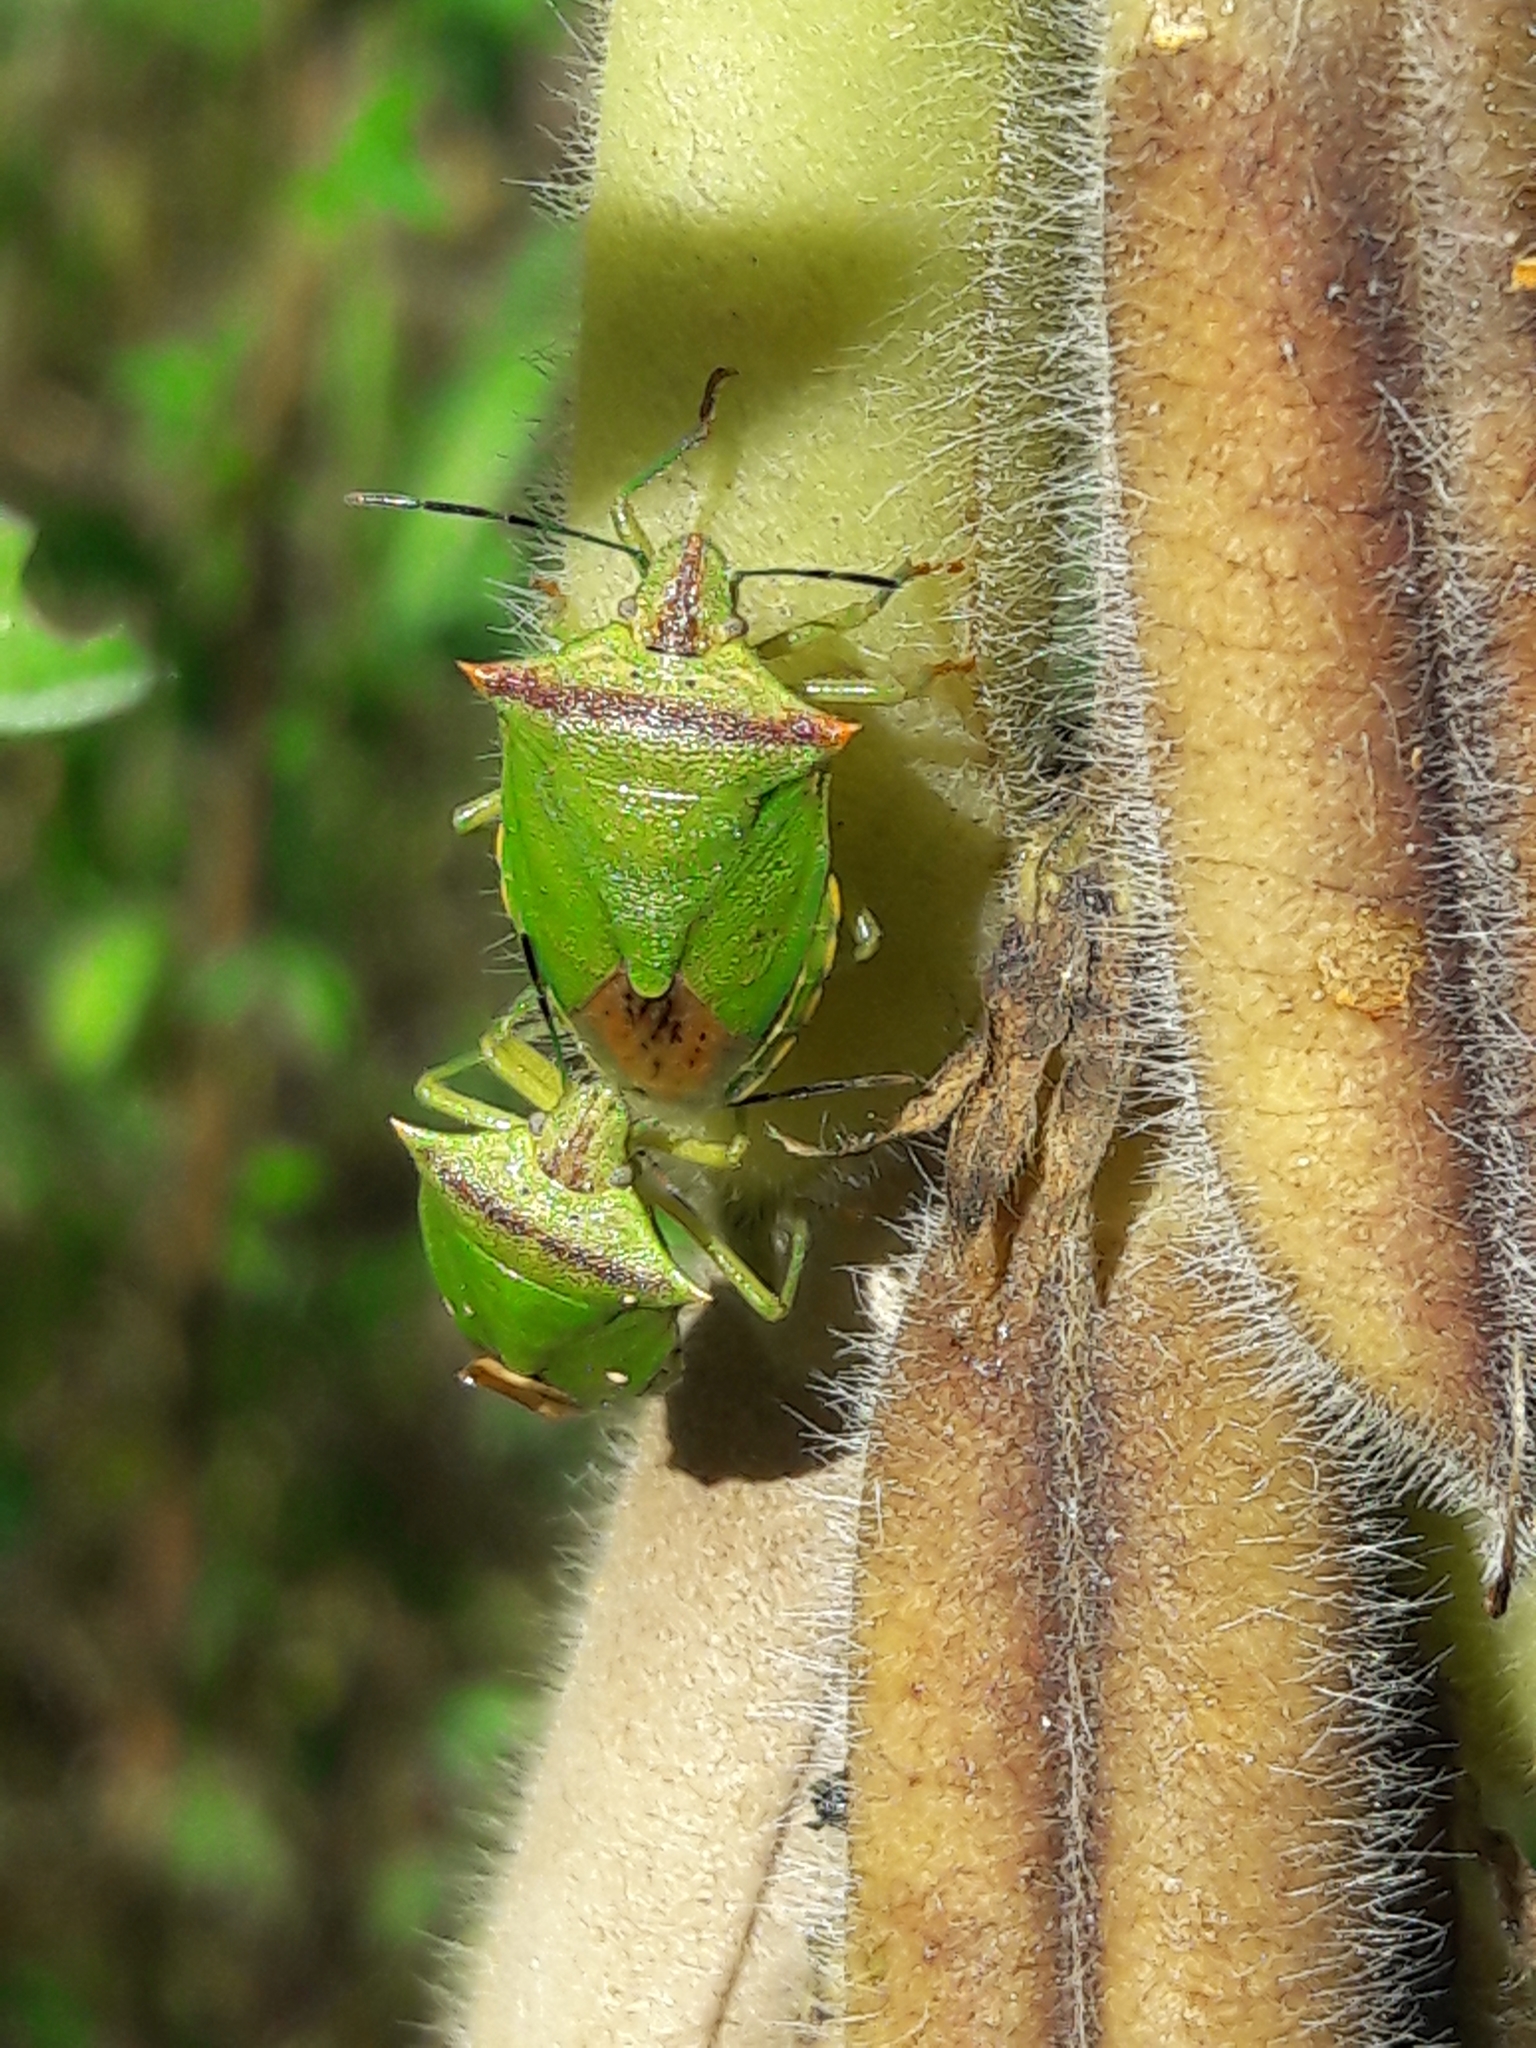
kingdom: Animalia
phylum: Arthropoda
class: Insecta
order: Hemiptera
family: Pentatomidae
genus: Thyanta
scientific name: Thyanta perditor
